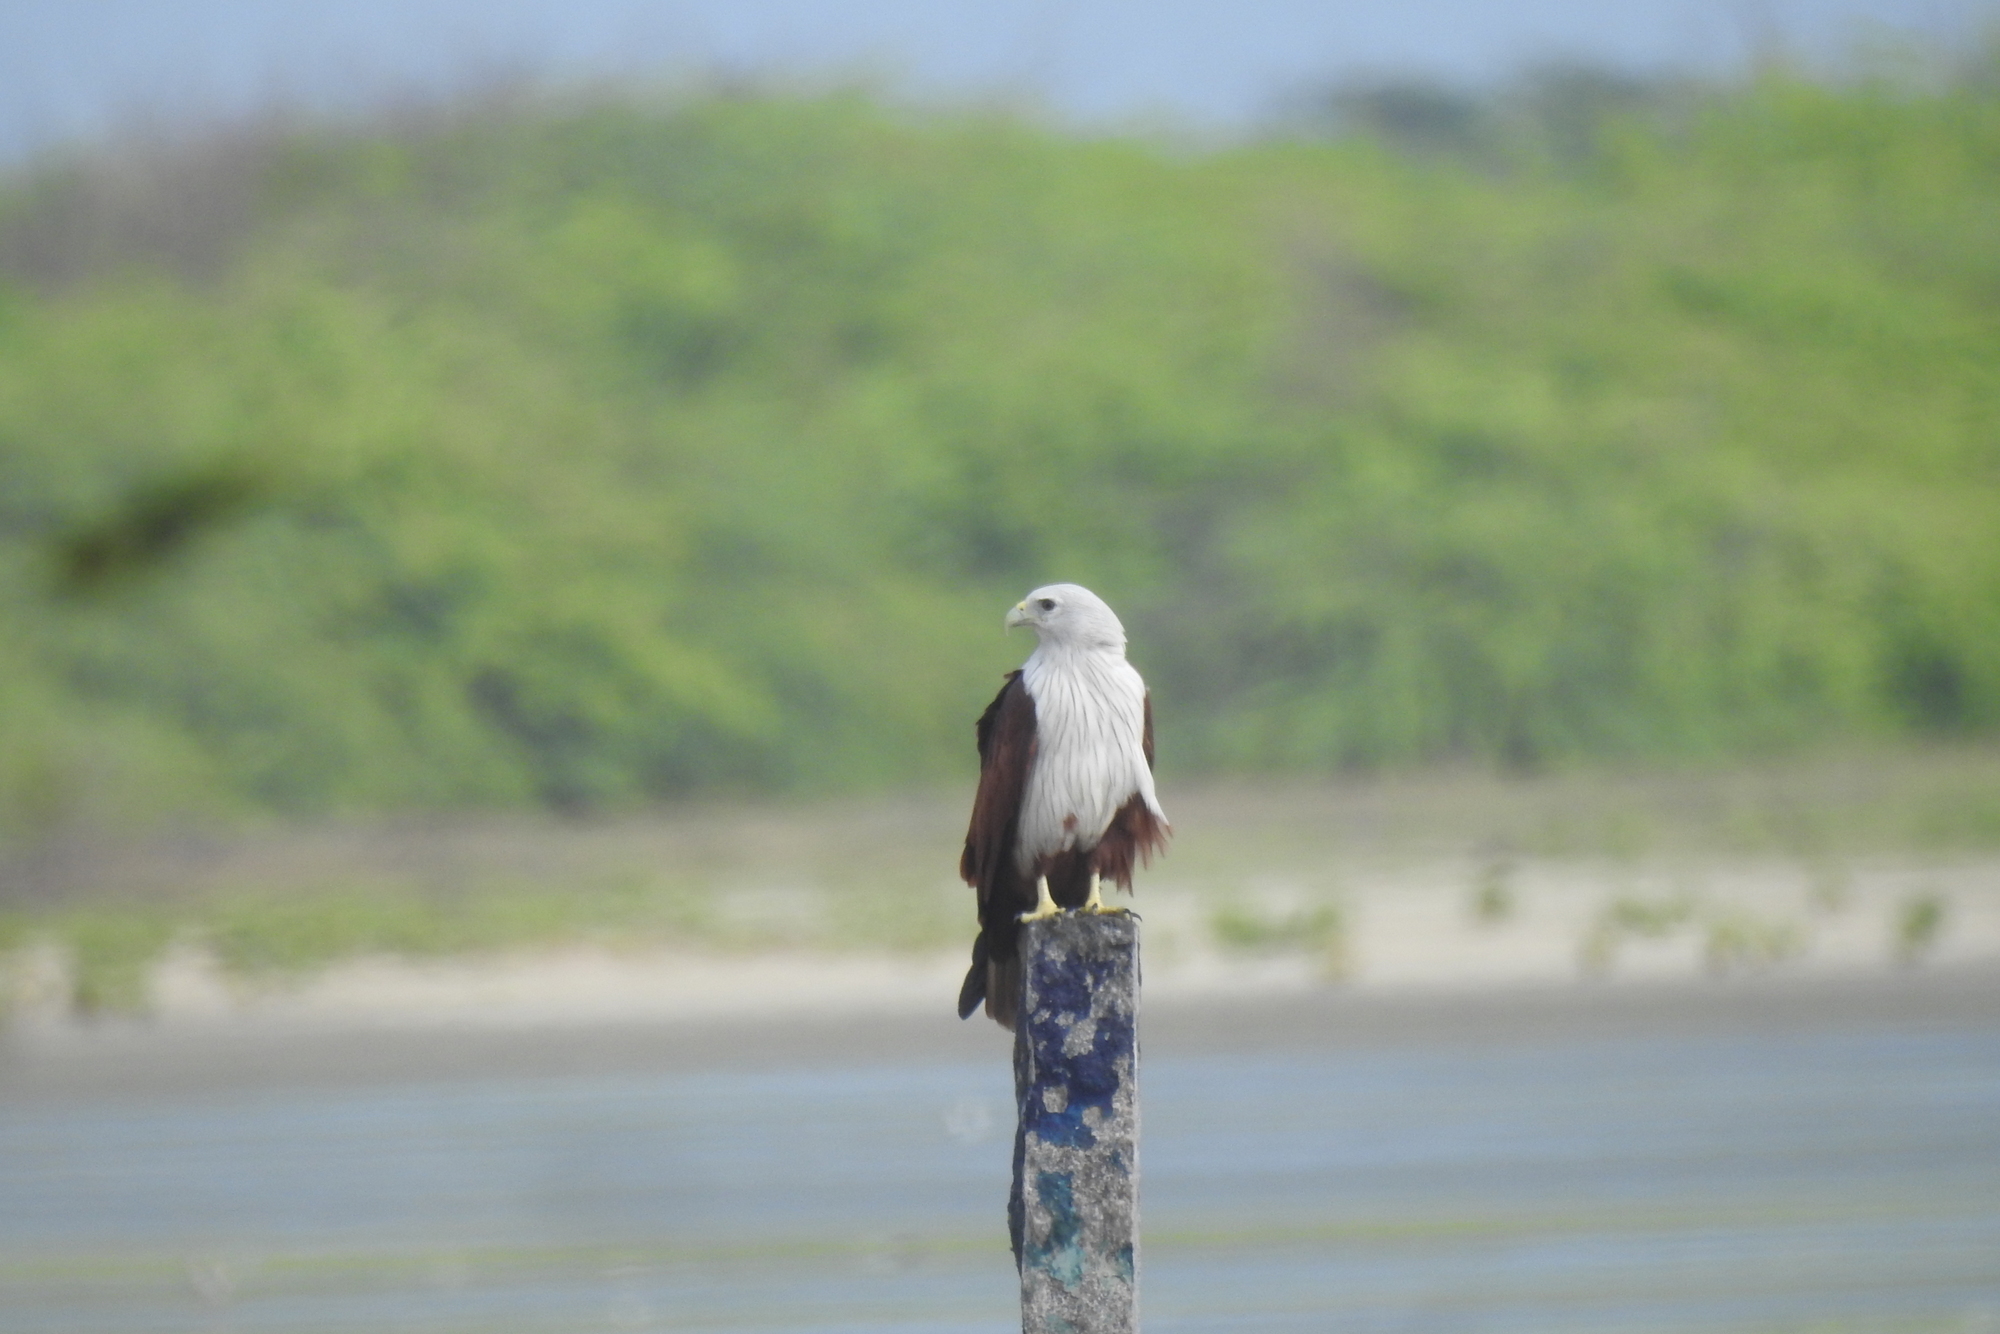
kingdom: Animalia
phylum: Chordata
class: Aves
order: Accipitriformes
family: Accipitridae
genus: Haliastur
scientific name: Haliastur indus
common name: Brahminy kite
